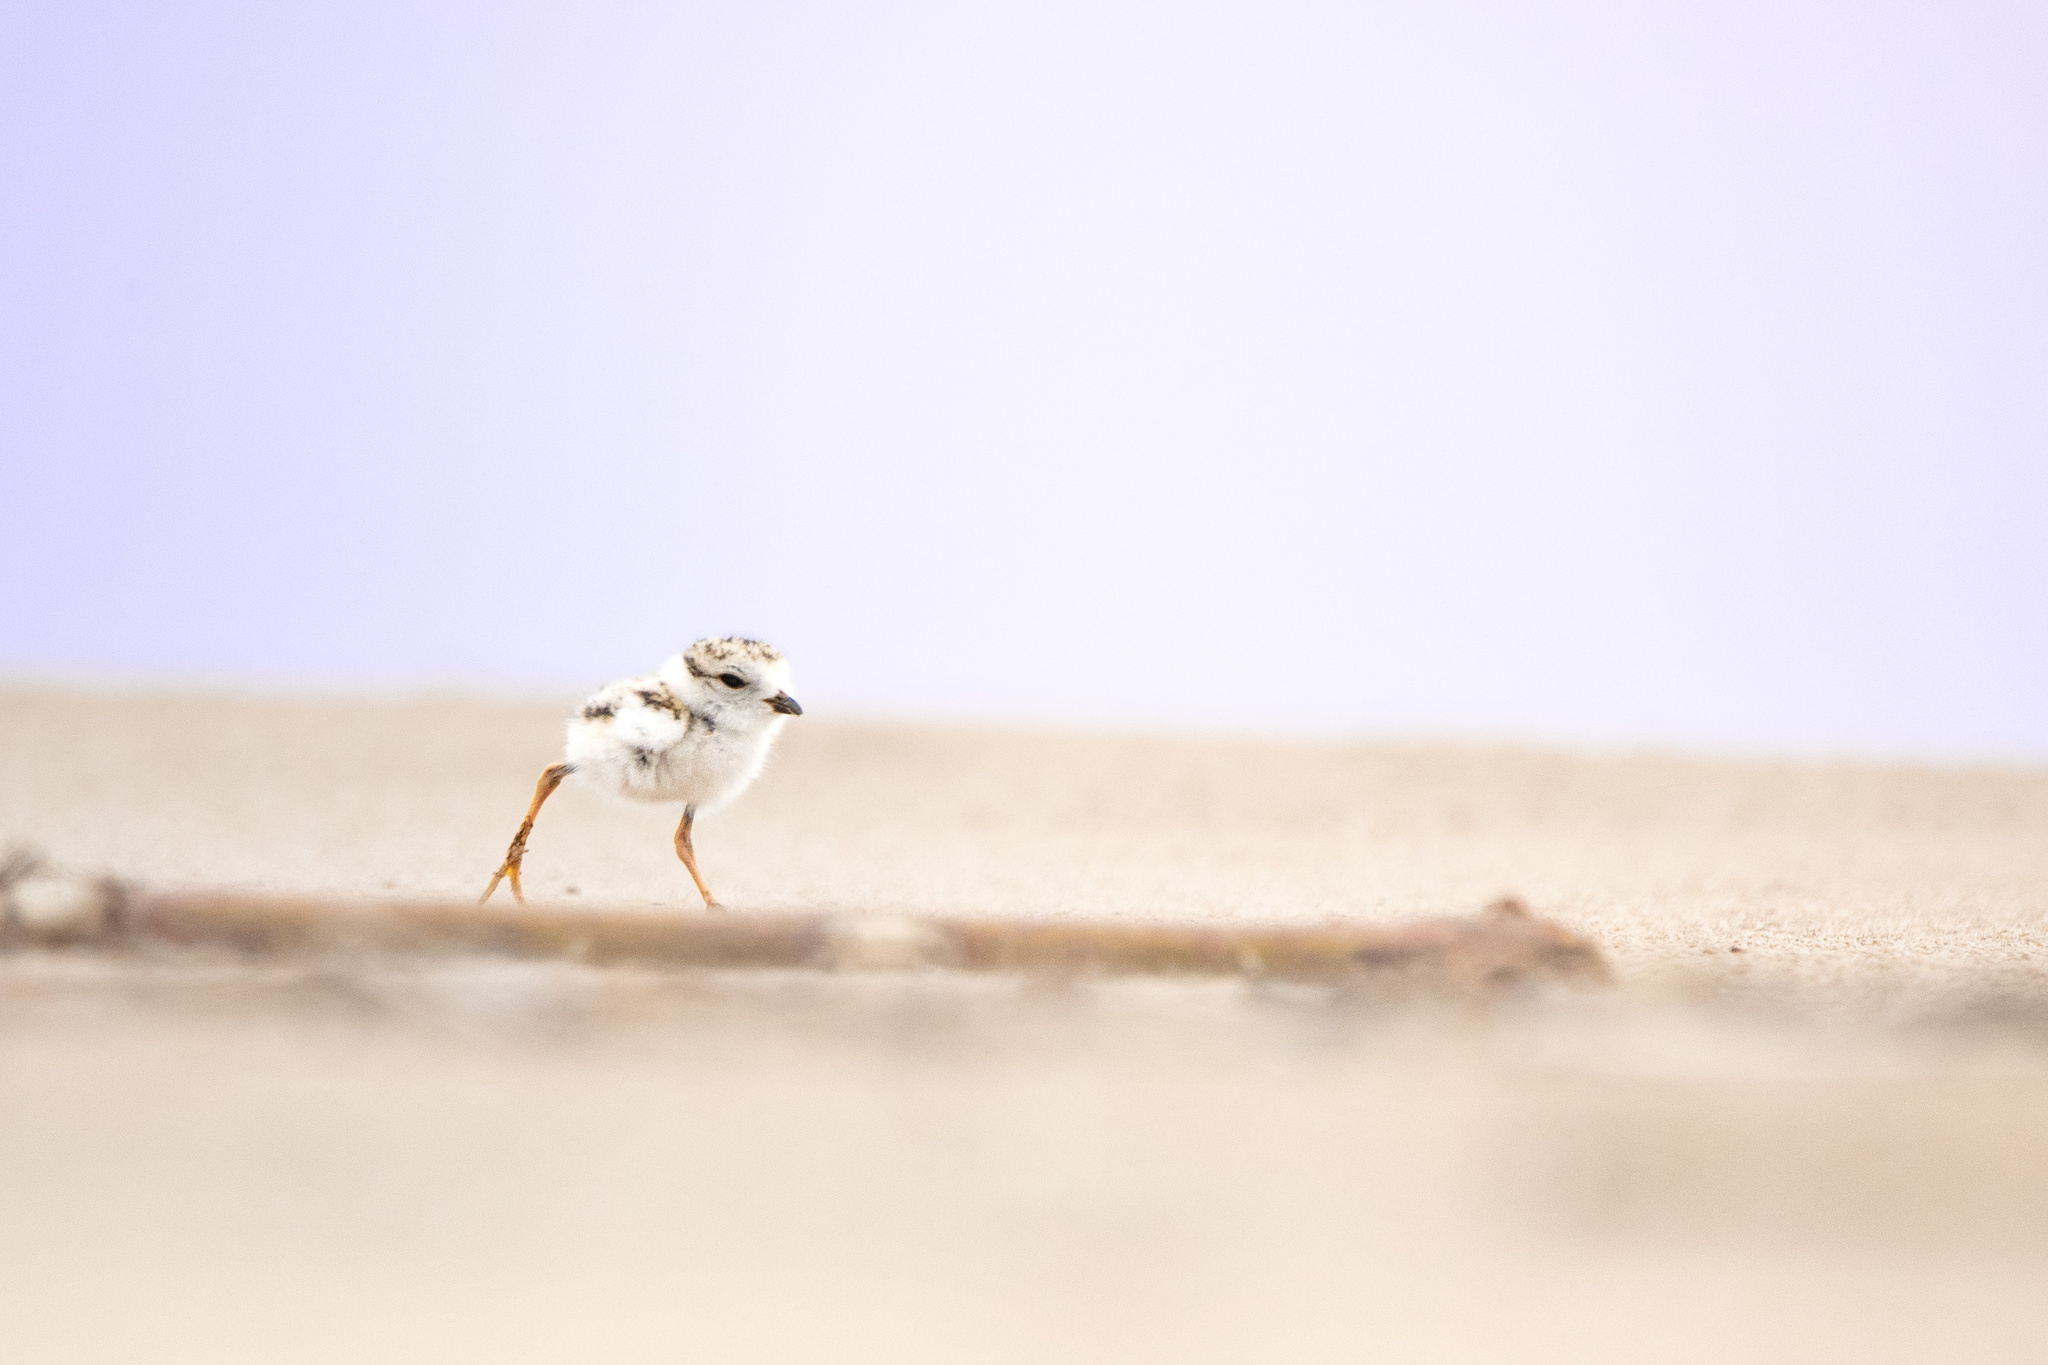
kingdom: Animalia
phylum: Chordata
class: Aves
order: Charadriiformes
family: Charadriidae
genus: Charadrius
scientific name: Charadrius melodus
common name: Piping plover
